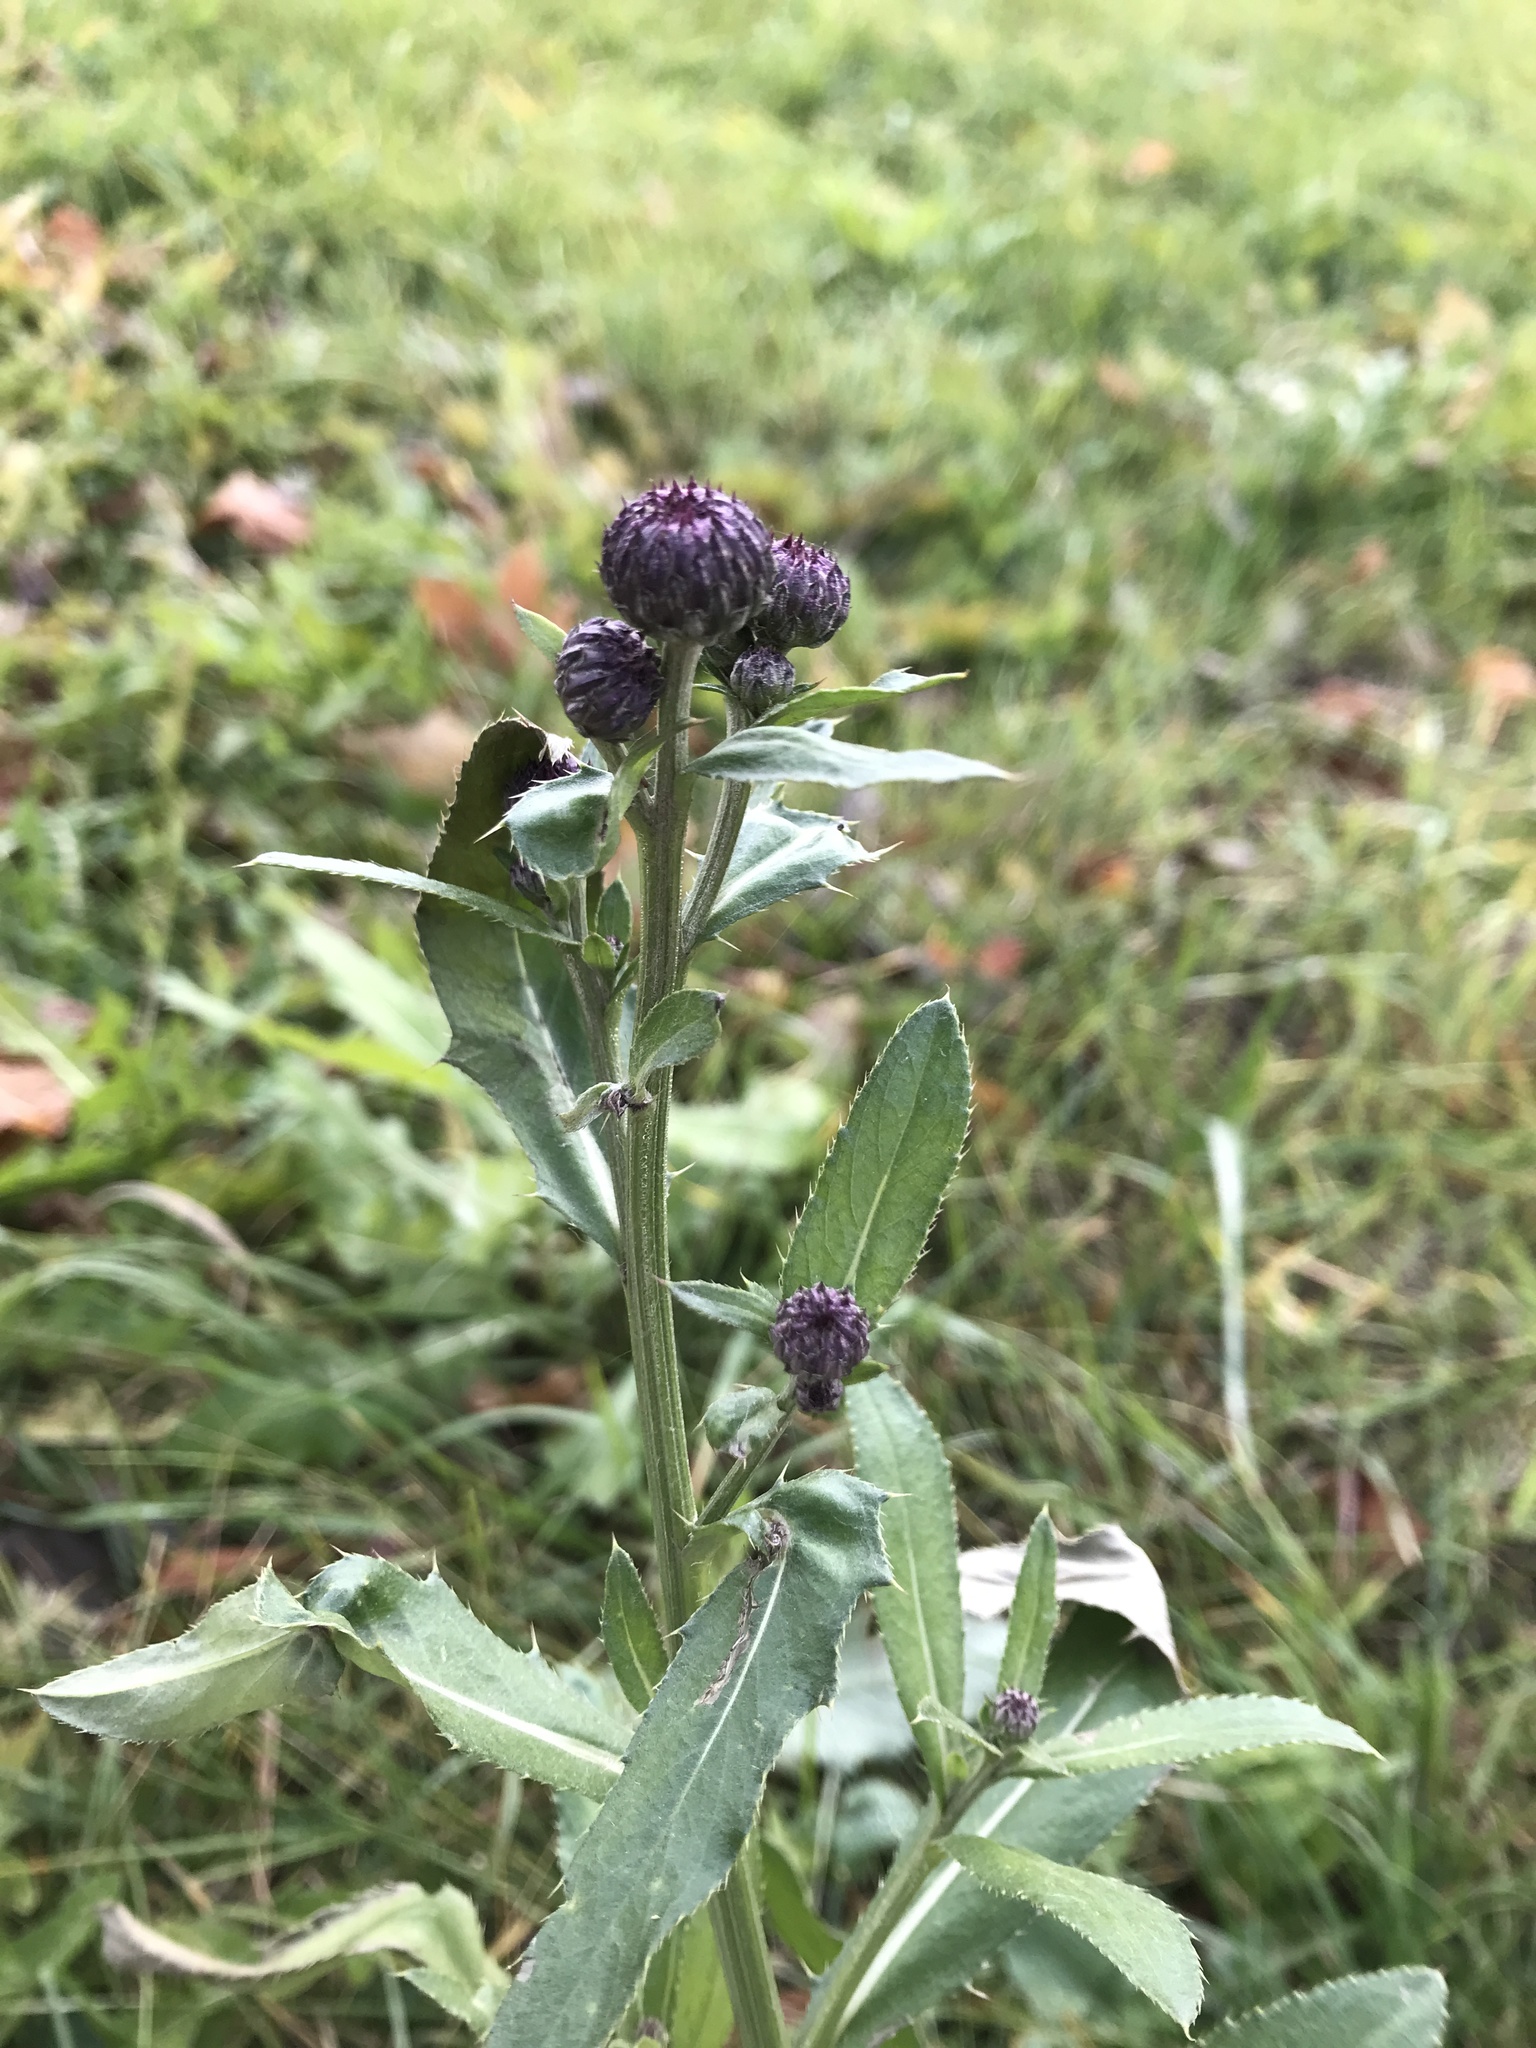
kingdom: Plantae
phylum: Tracheophyta
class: Magnoliopsida
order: Asterales
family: Asteraceae
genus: Cirsium
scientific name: Cirsium arvense
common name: Creeping thistle
